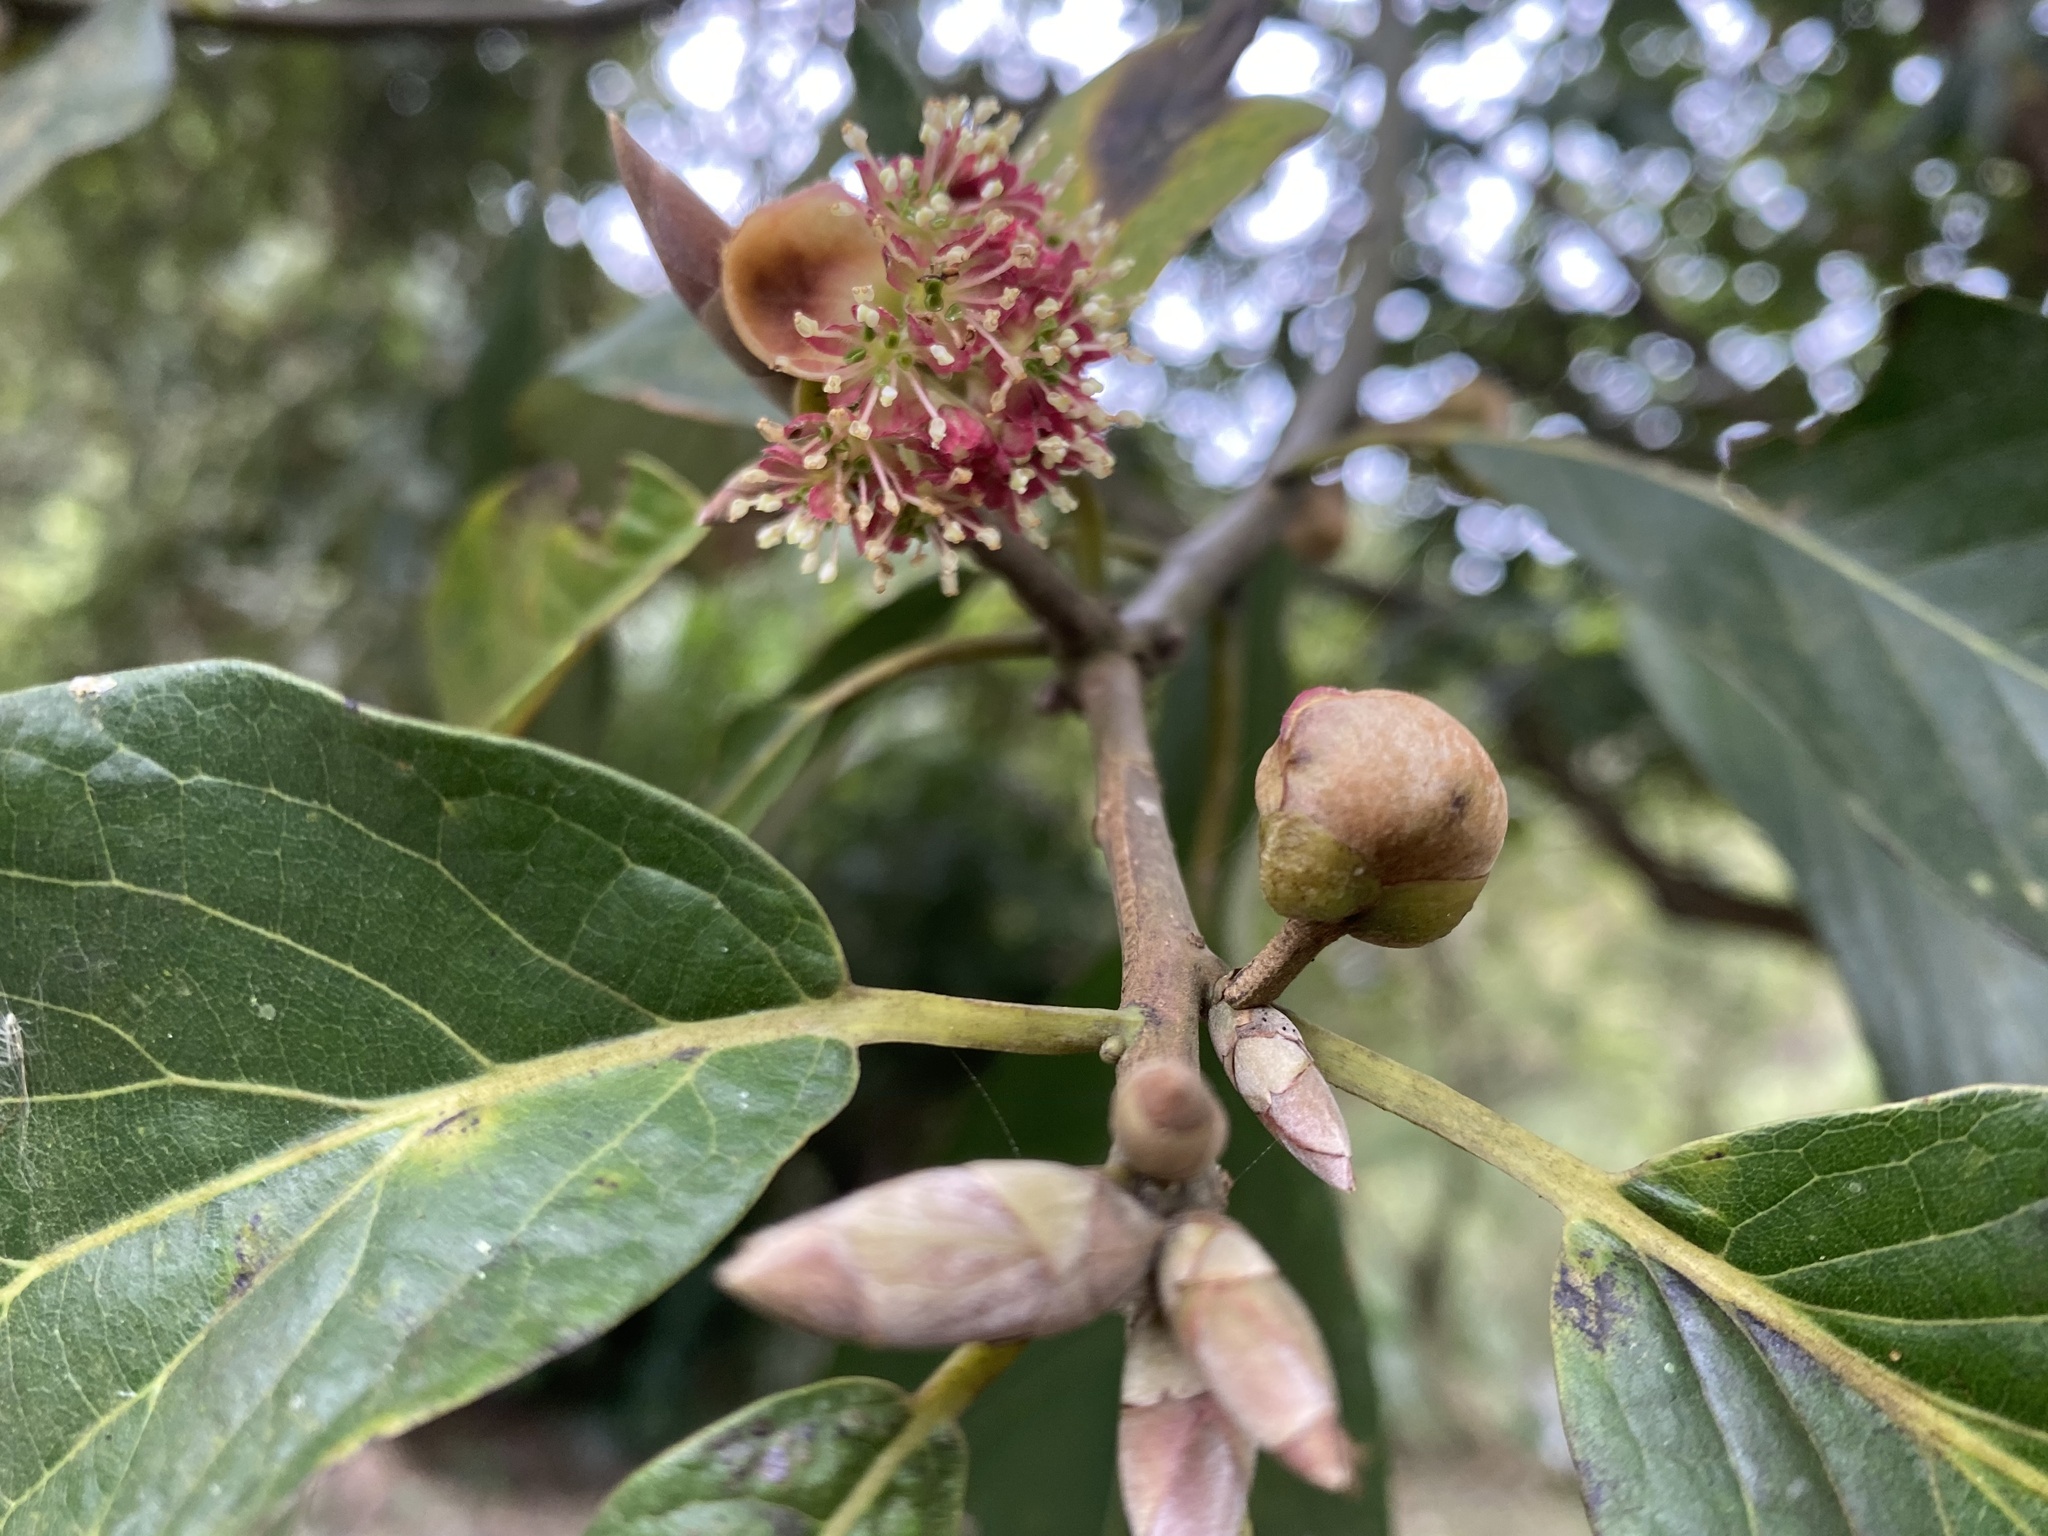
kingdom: Plantae
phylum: Tracheophyta
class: Magnoliopsida
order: Laurales
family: Lauraceae
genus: Lindera
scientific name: Lindera megaphylla
